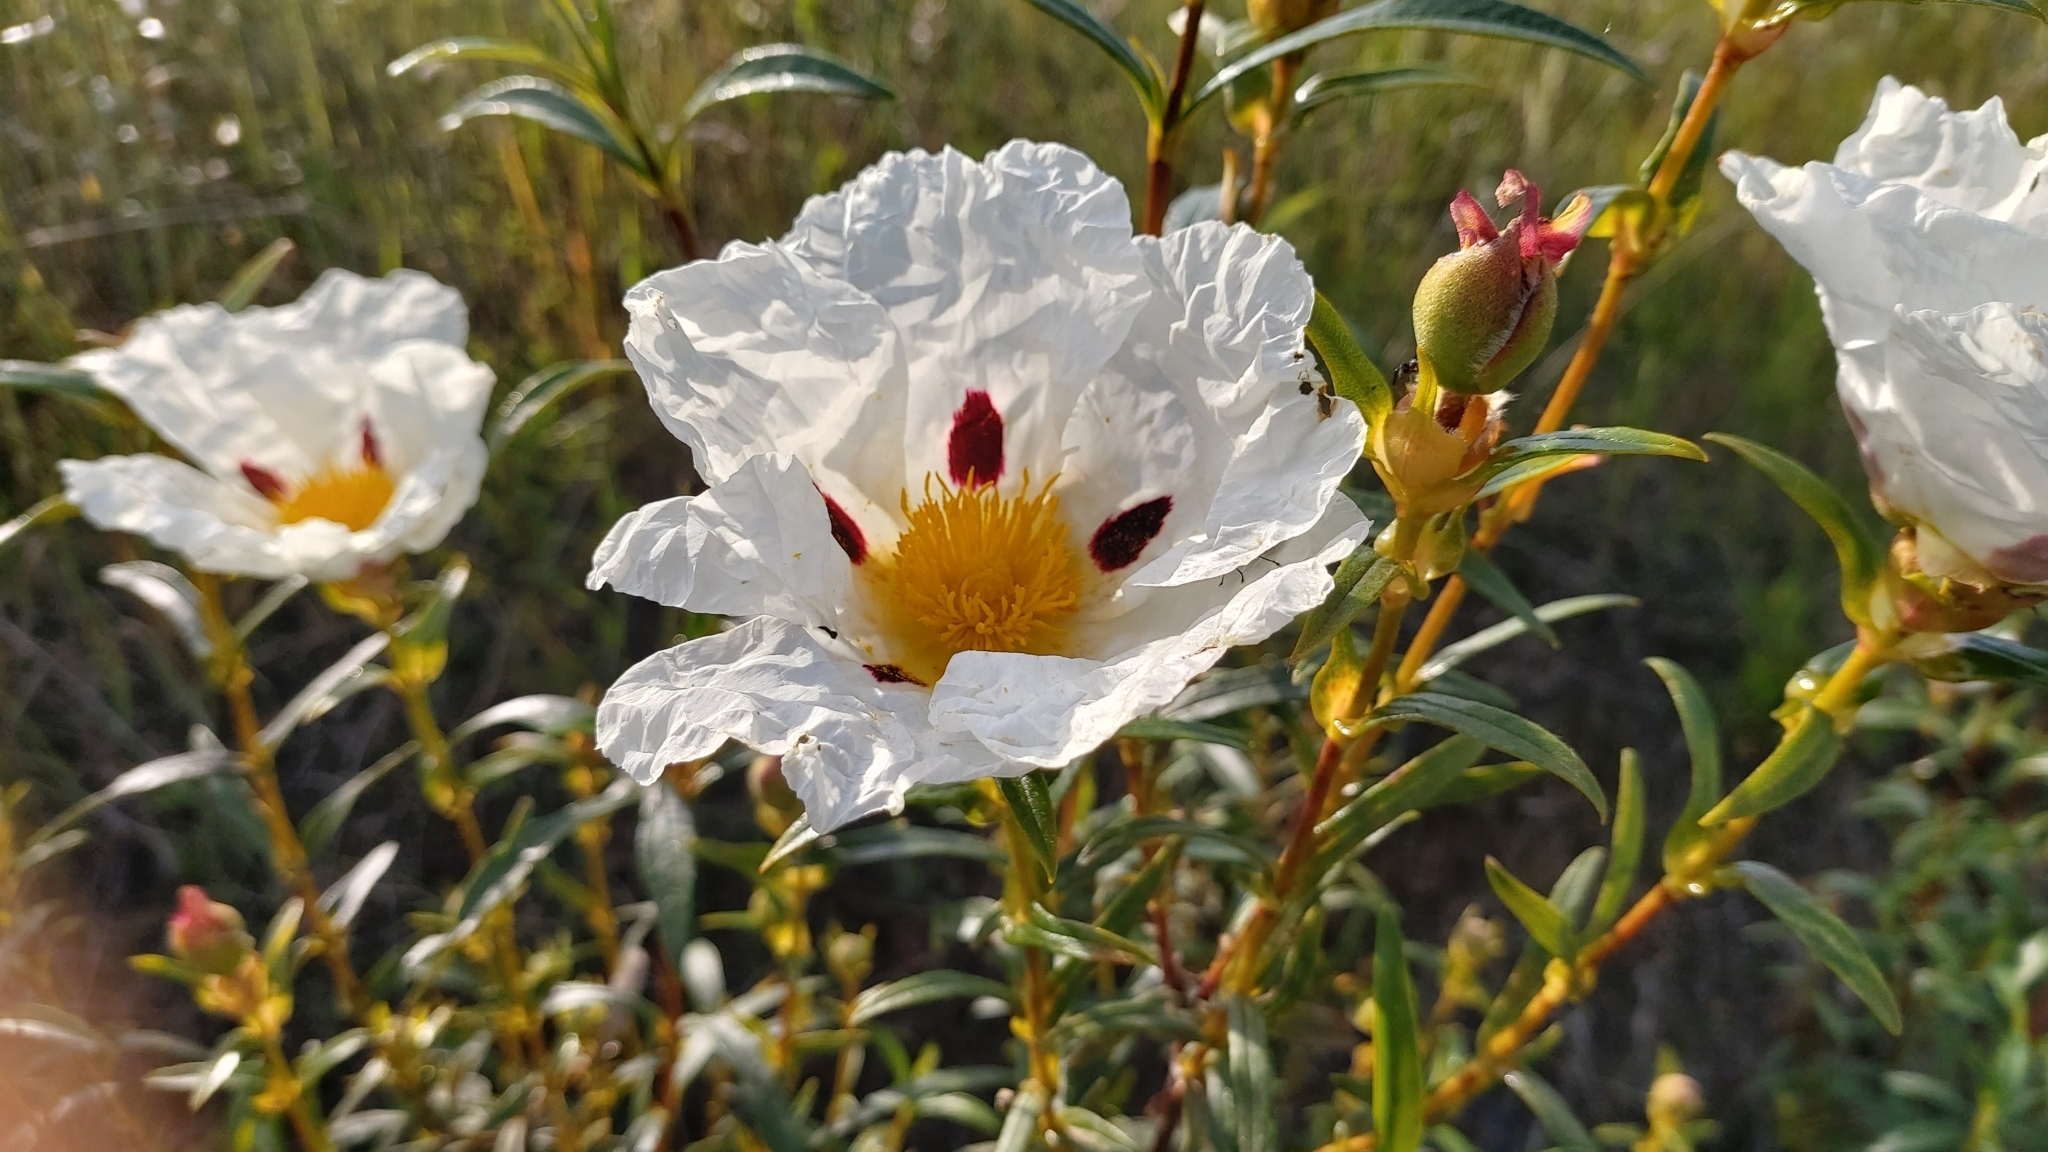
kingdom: Plantae
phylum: Tracheophyta
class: Magnoliopsida
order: Malvales
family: Cistaceae
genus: Cistus
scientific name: Cistus ladanifer
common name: Common gum cistus
